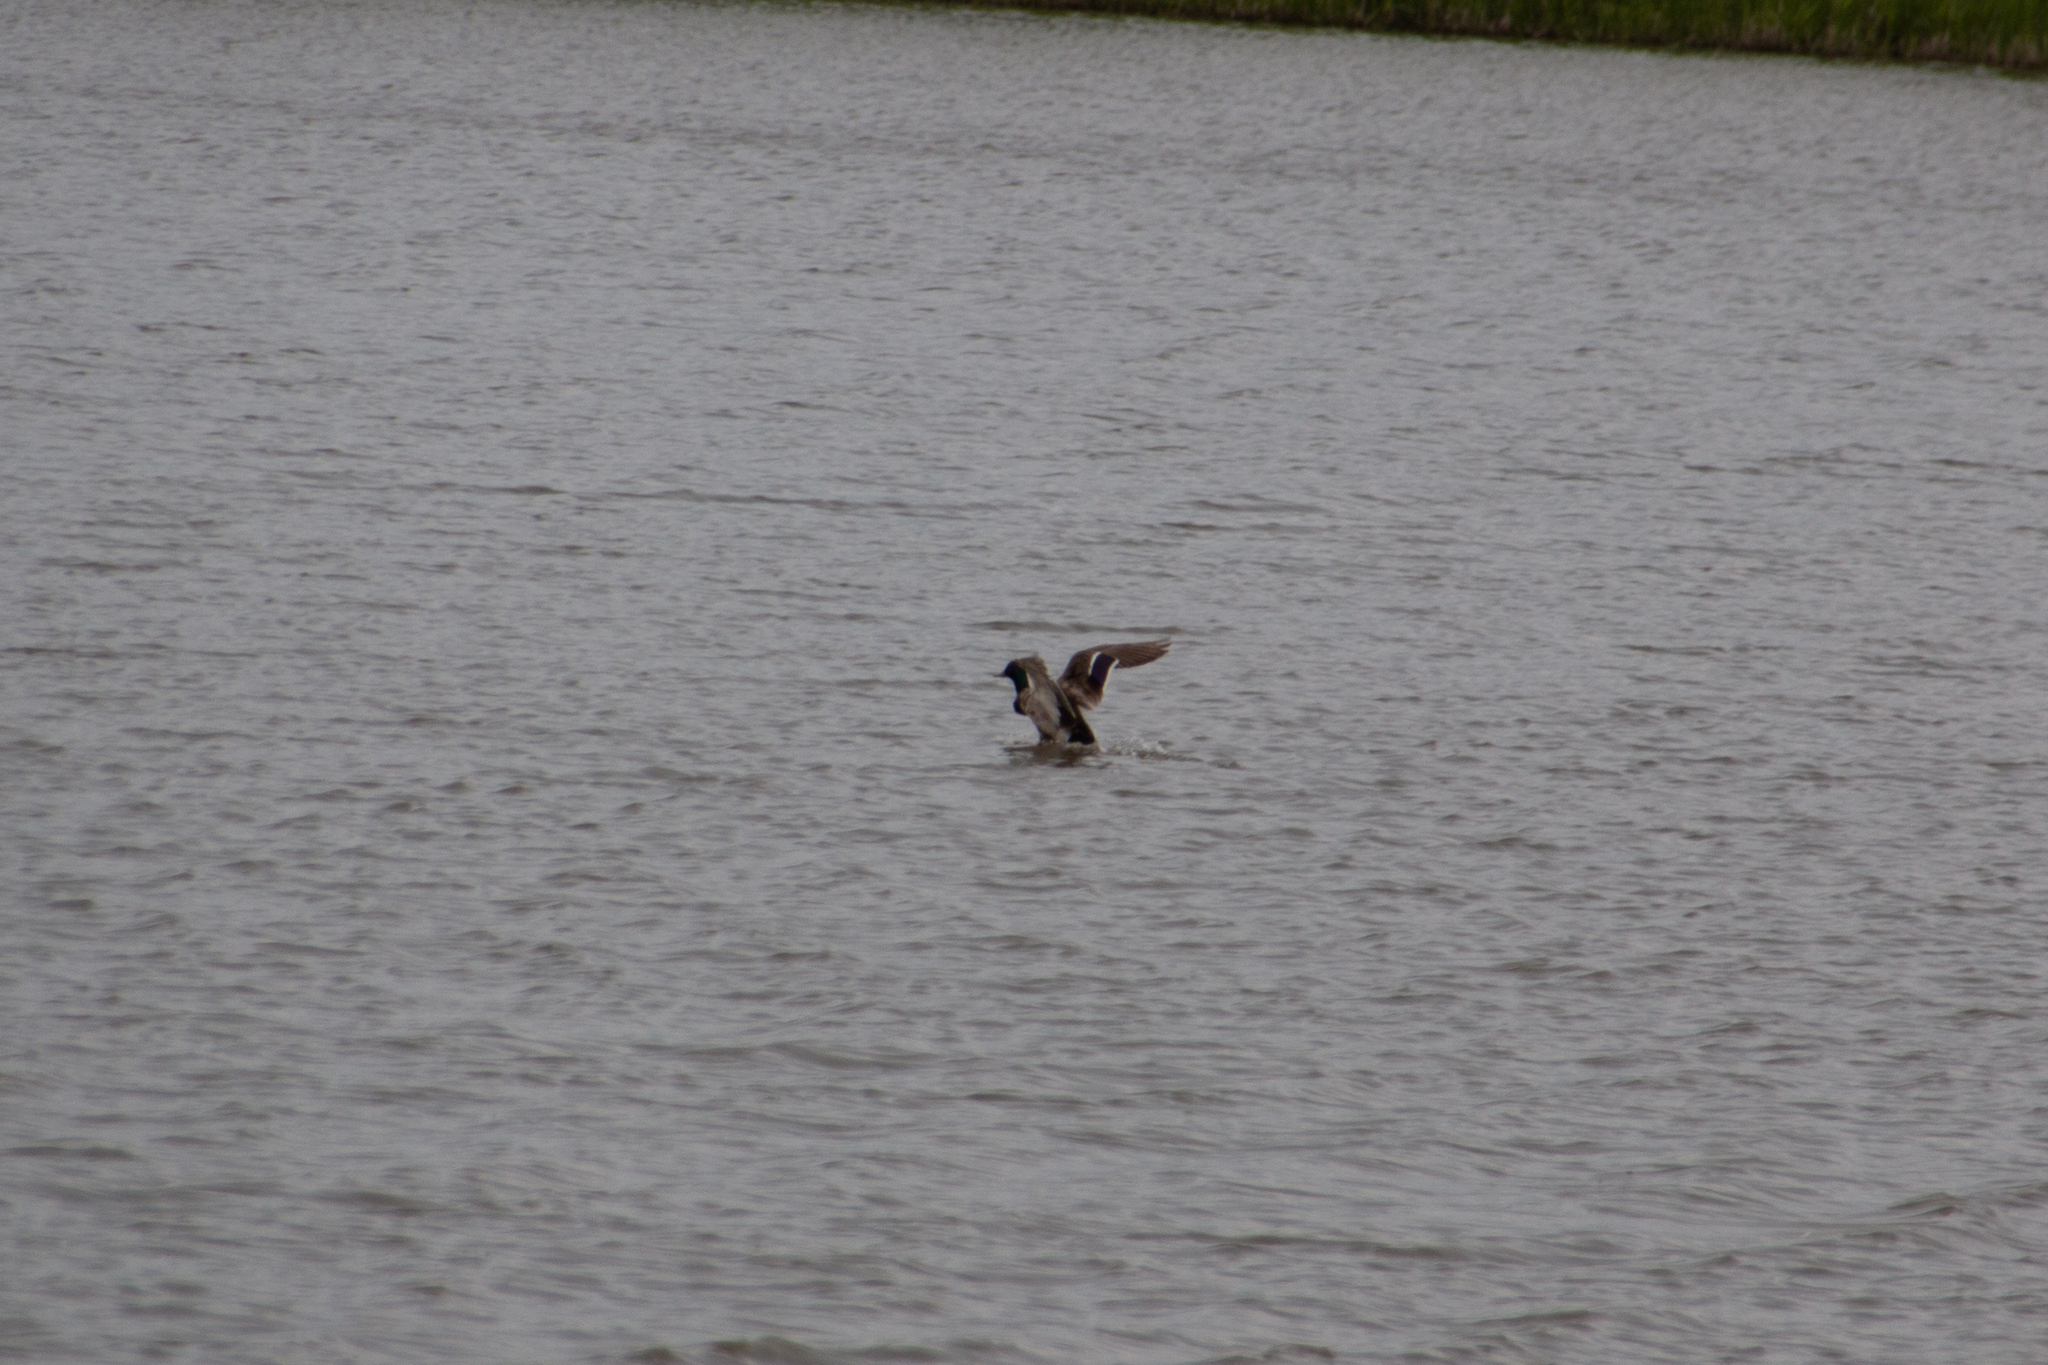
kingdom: Animalia
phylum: Chordata
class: Aves
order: Anseriformes
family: Anatidae
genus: Anas
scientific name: Anas platyrhynchos
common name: Mallard
